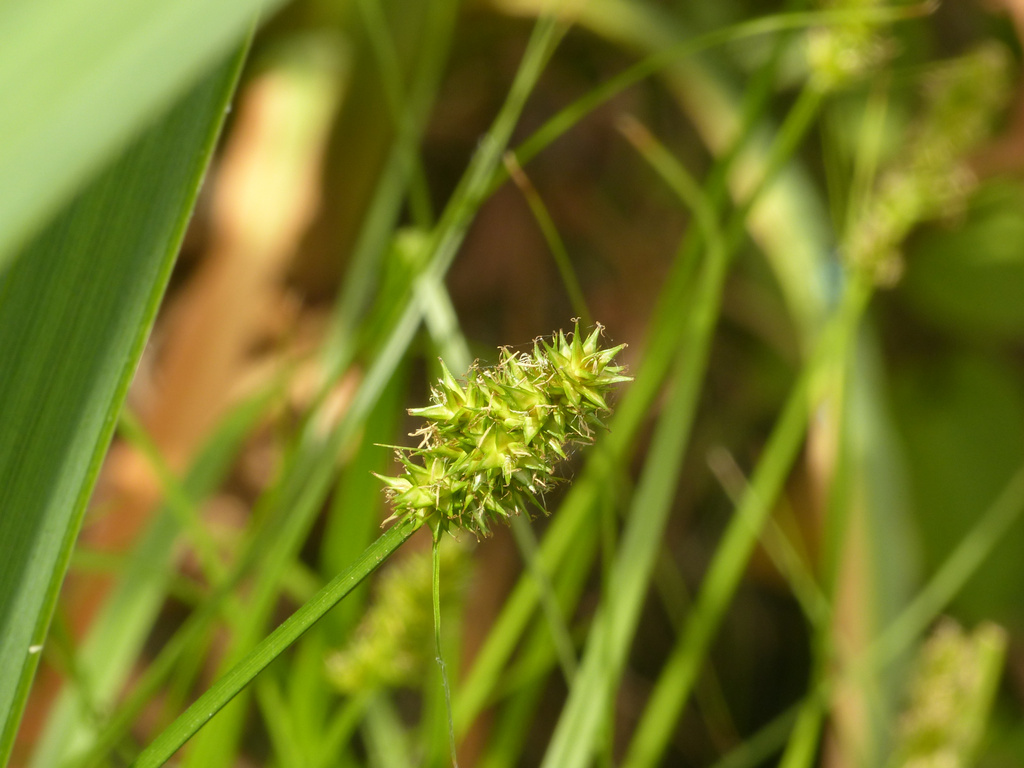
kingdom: Plantae
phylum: Tracheophyta
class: Liliopsida
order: Poales
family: Cyperaceae
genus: Carex
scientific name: Carex otrubae
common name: False fox-sedge
